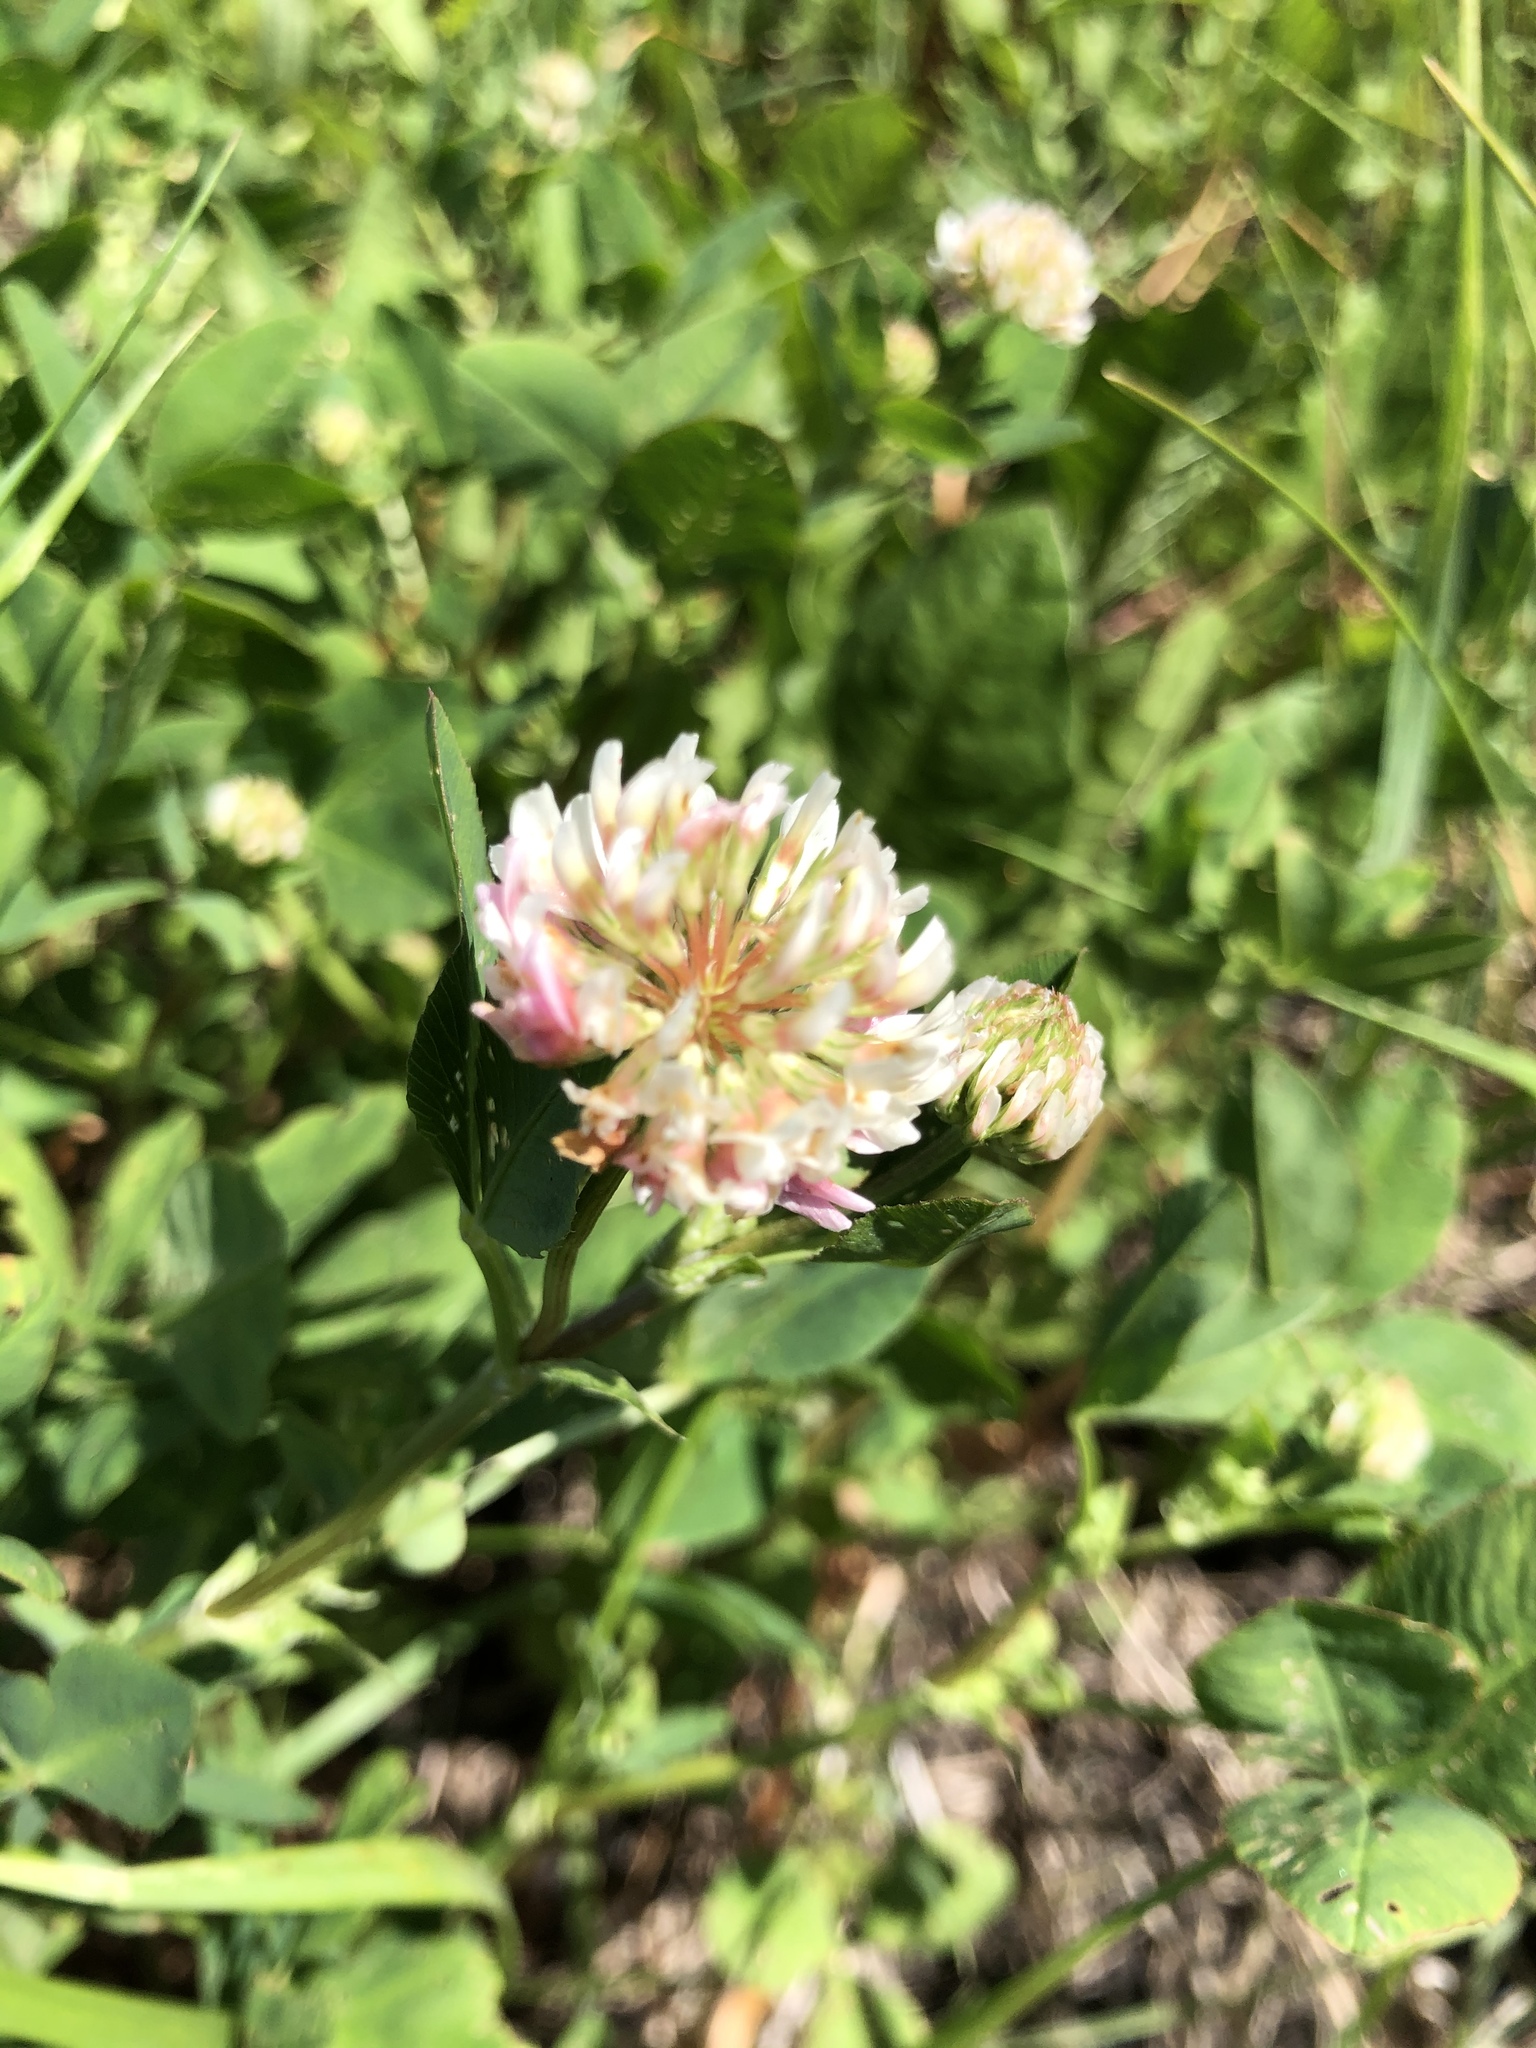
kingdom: Plantae
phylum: Tracheophyta
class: Magnoliopsida
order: Fabales
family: Fabaceae
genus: Trifolium
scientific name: Trifolium hybridum
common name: Alsike clover
